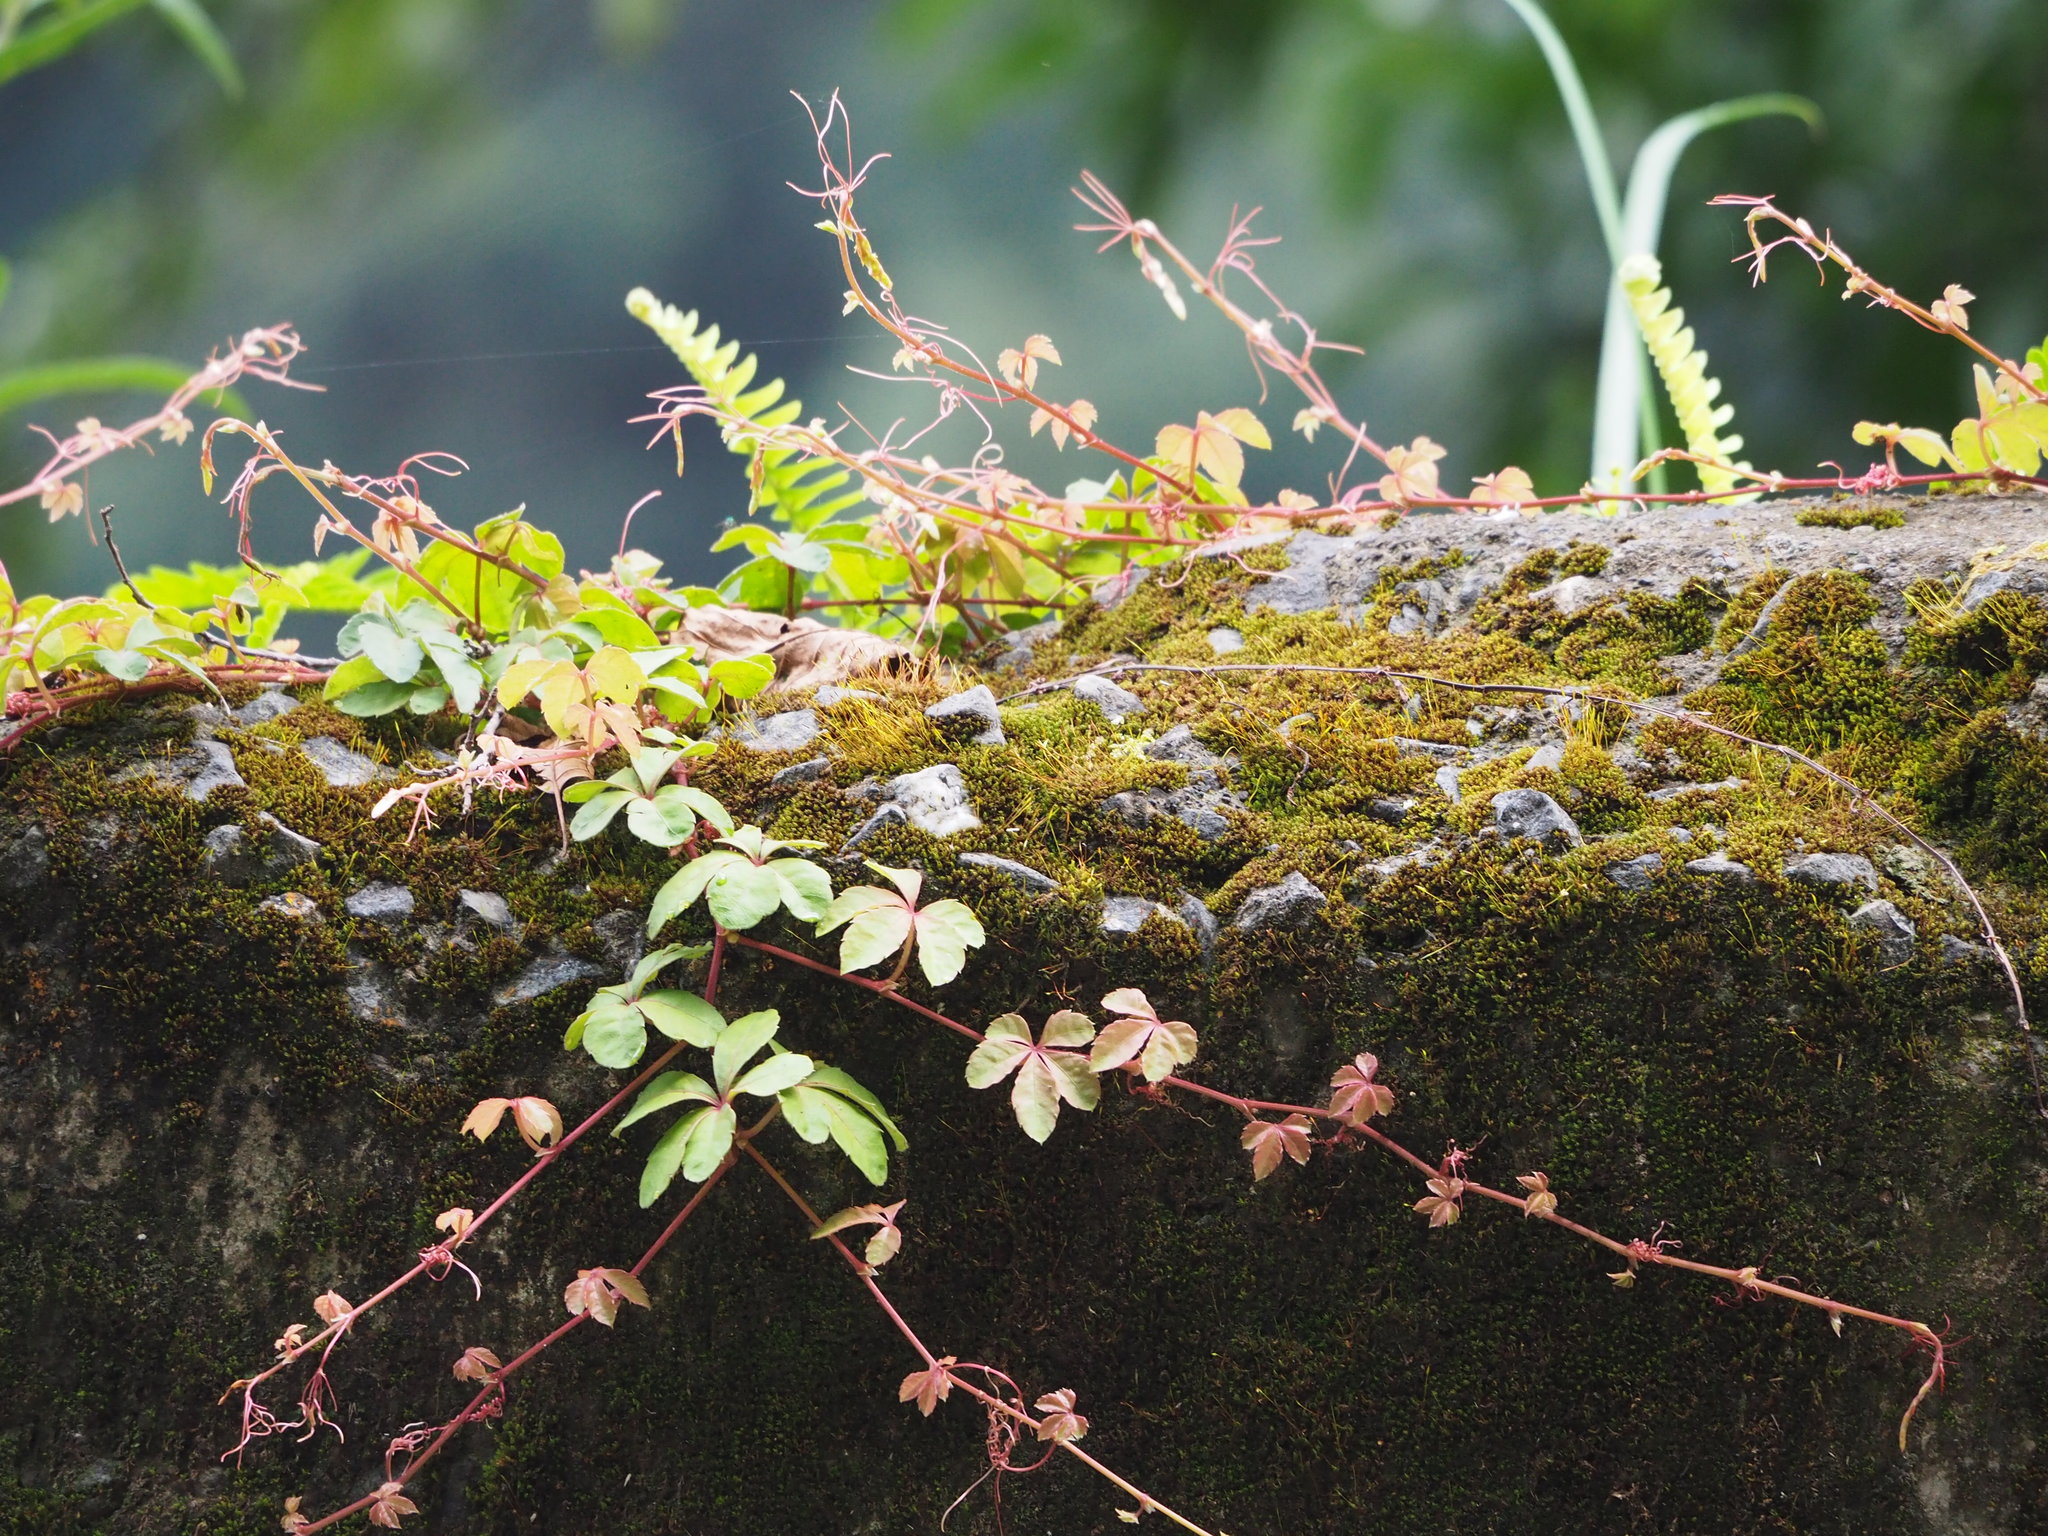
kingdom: Plantae
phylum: Tracheophyta
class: Magnoliopsida
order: Vitales
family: Vitaceae
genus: Parthenocissus
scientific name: Parthenocissus tricuspidata
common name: Boston ivy
